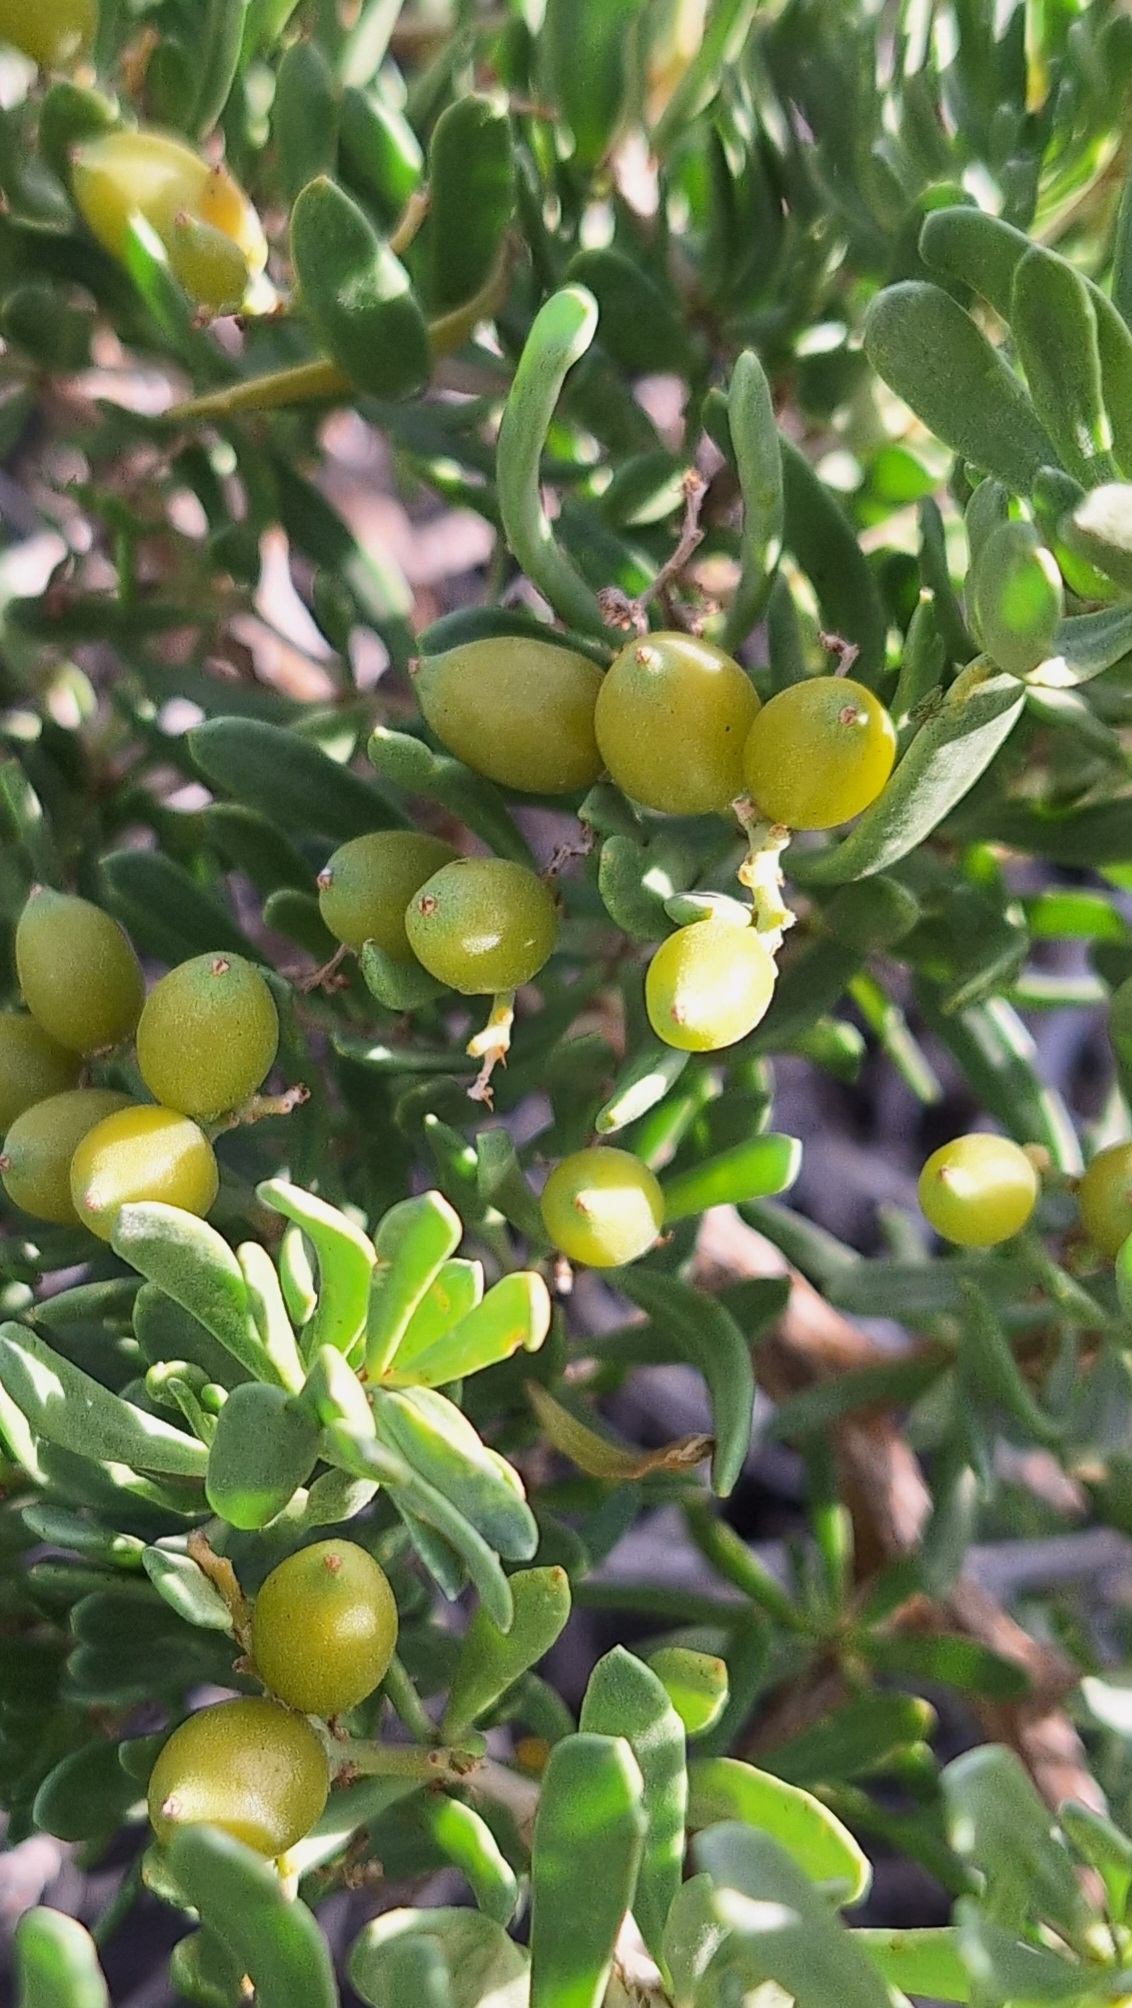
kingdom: Plantae
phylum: Tracheophyta
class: Magnoliopsida
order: Sapindales
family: Nitrariaceae
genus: Nitraria
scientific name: Nitraria billardierei
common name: Dillonbush
